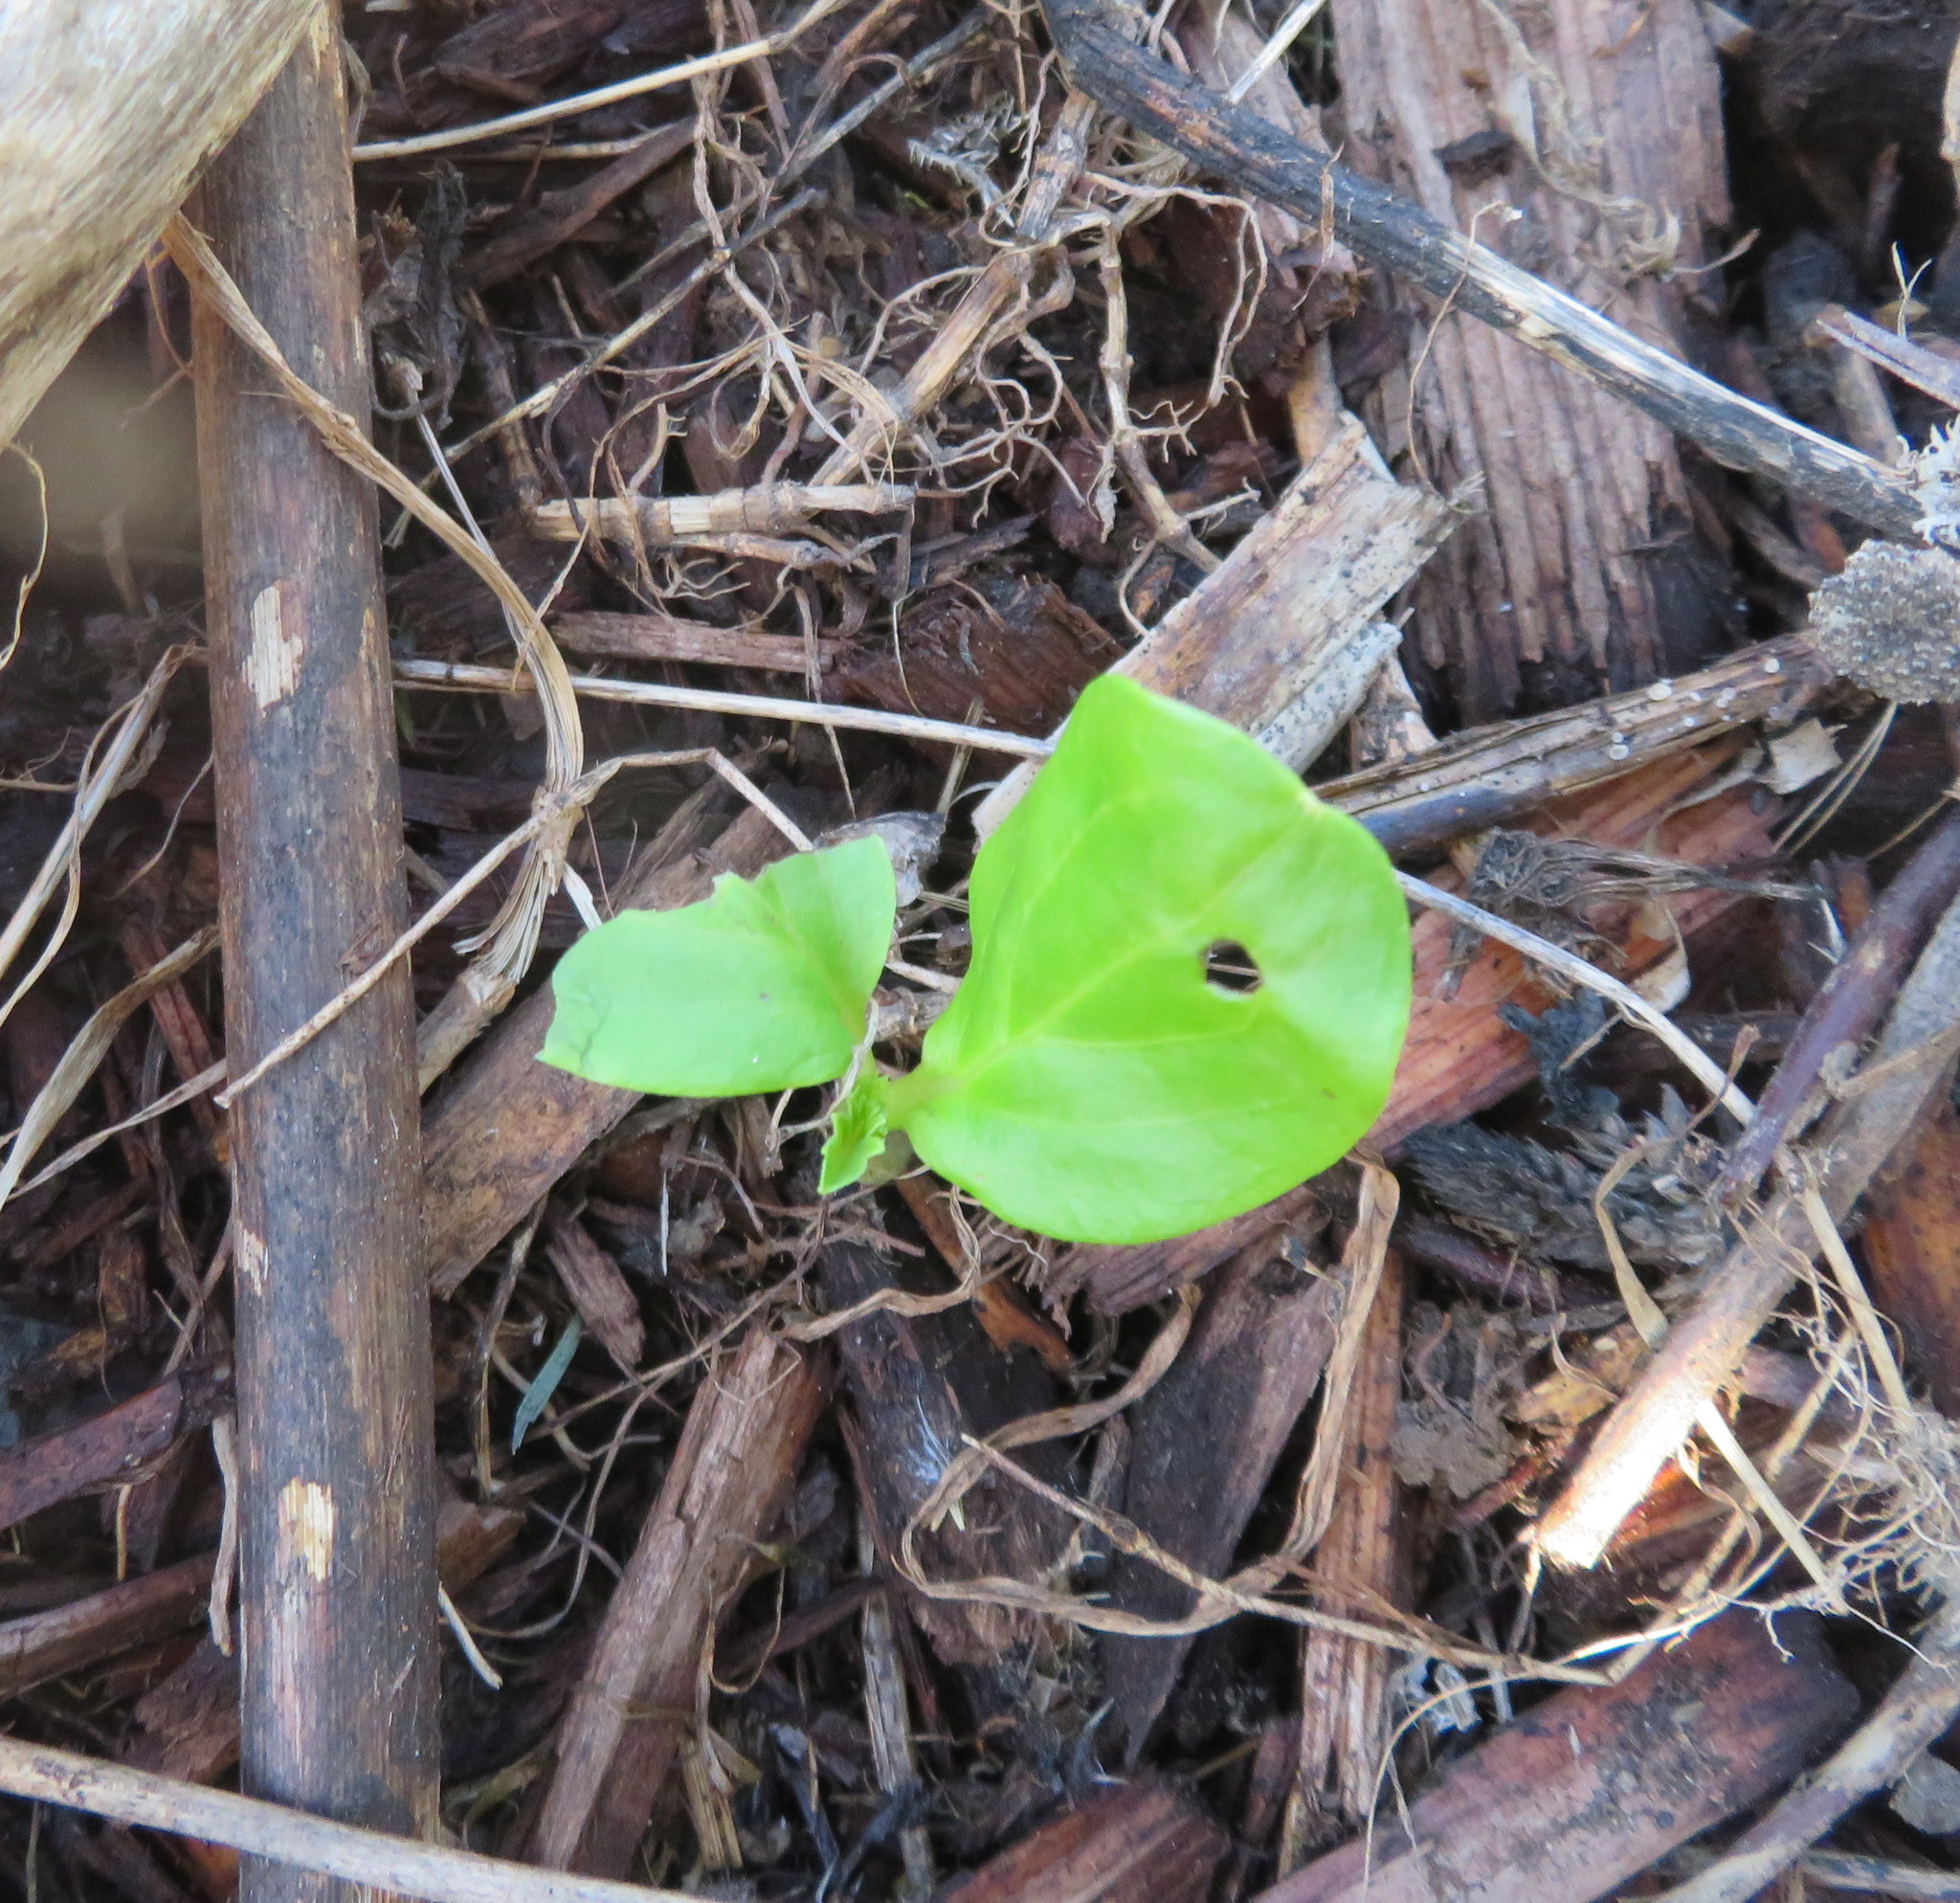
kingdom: Plantae
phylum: Tracheophyta
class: Magnoliopsida
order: Geraniales
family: Melianthaceae
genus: Melianthus
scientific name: Melianthus major
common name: Honey-flower
